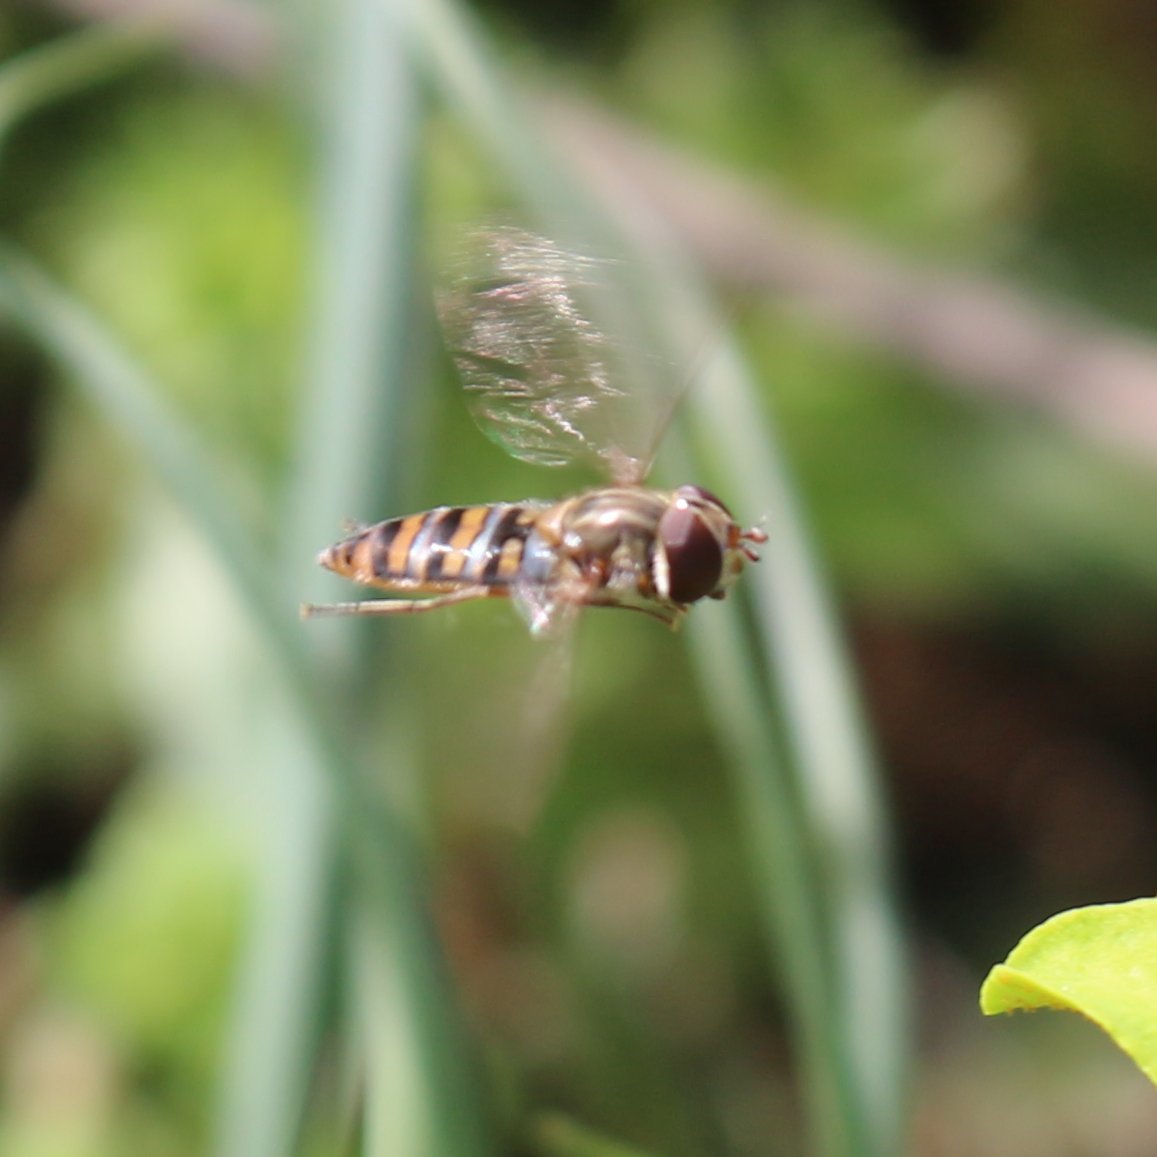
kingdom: Animalia
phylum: Arthropoda
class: Insecta
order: Diptera
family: Syrphidae
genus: Episyrphus
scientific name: Episyrphus balteatus
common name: Marmalade hoverfly
